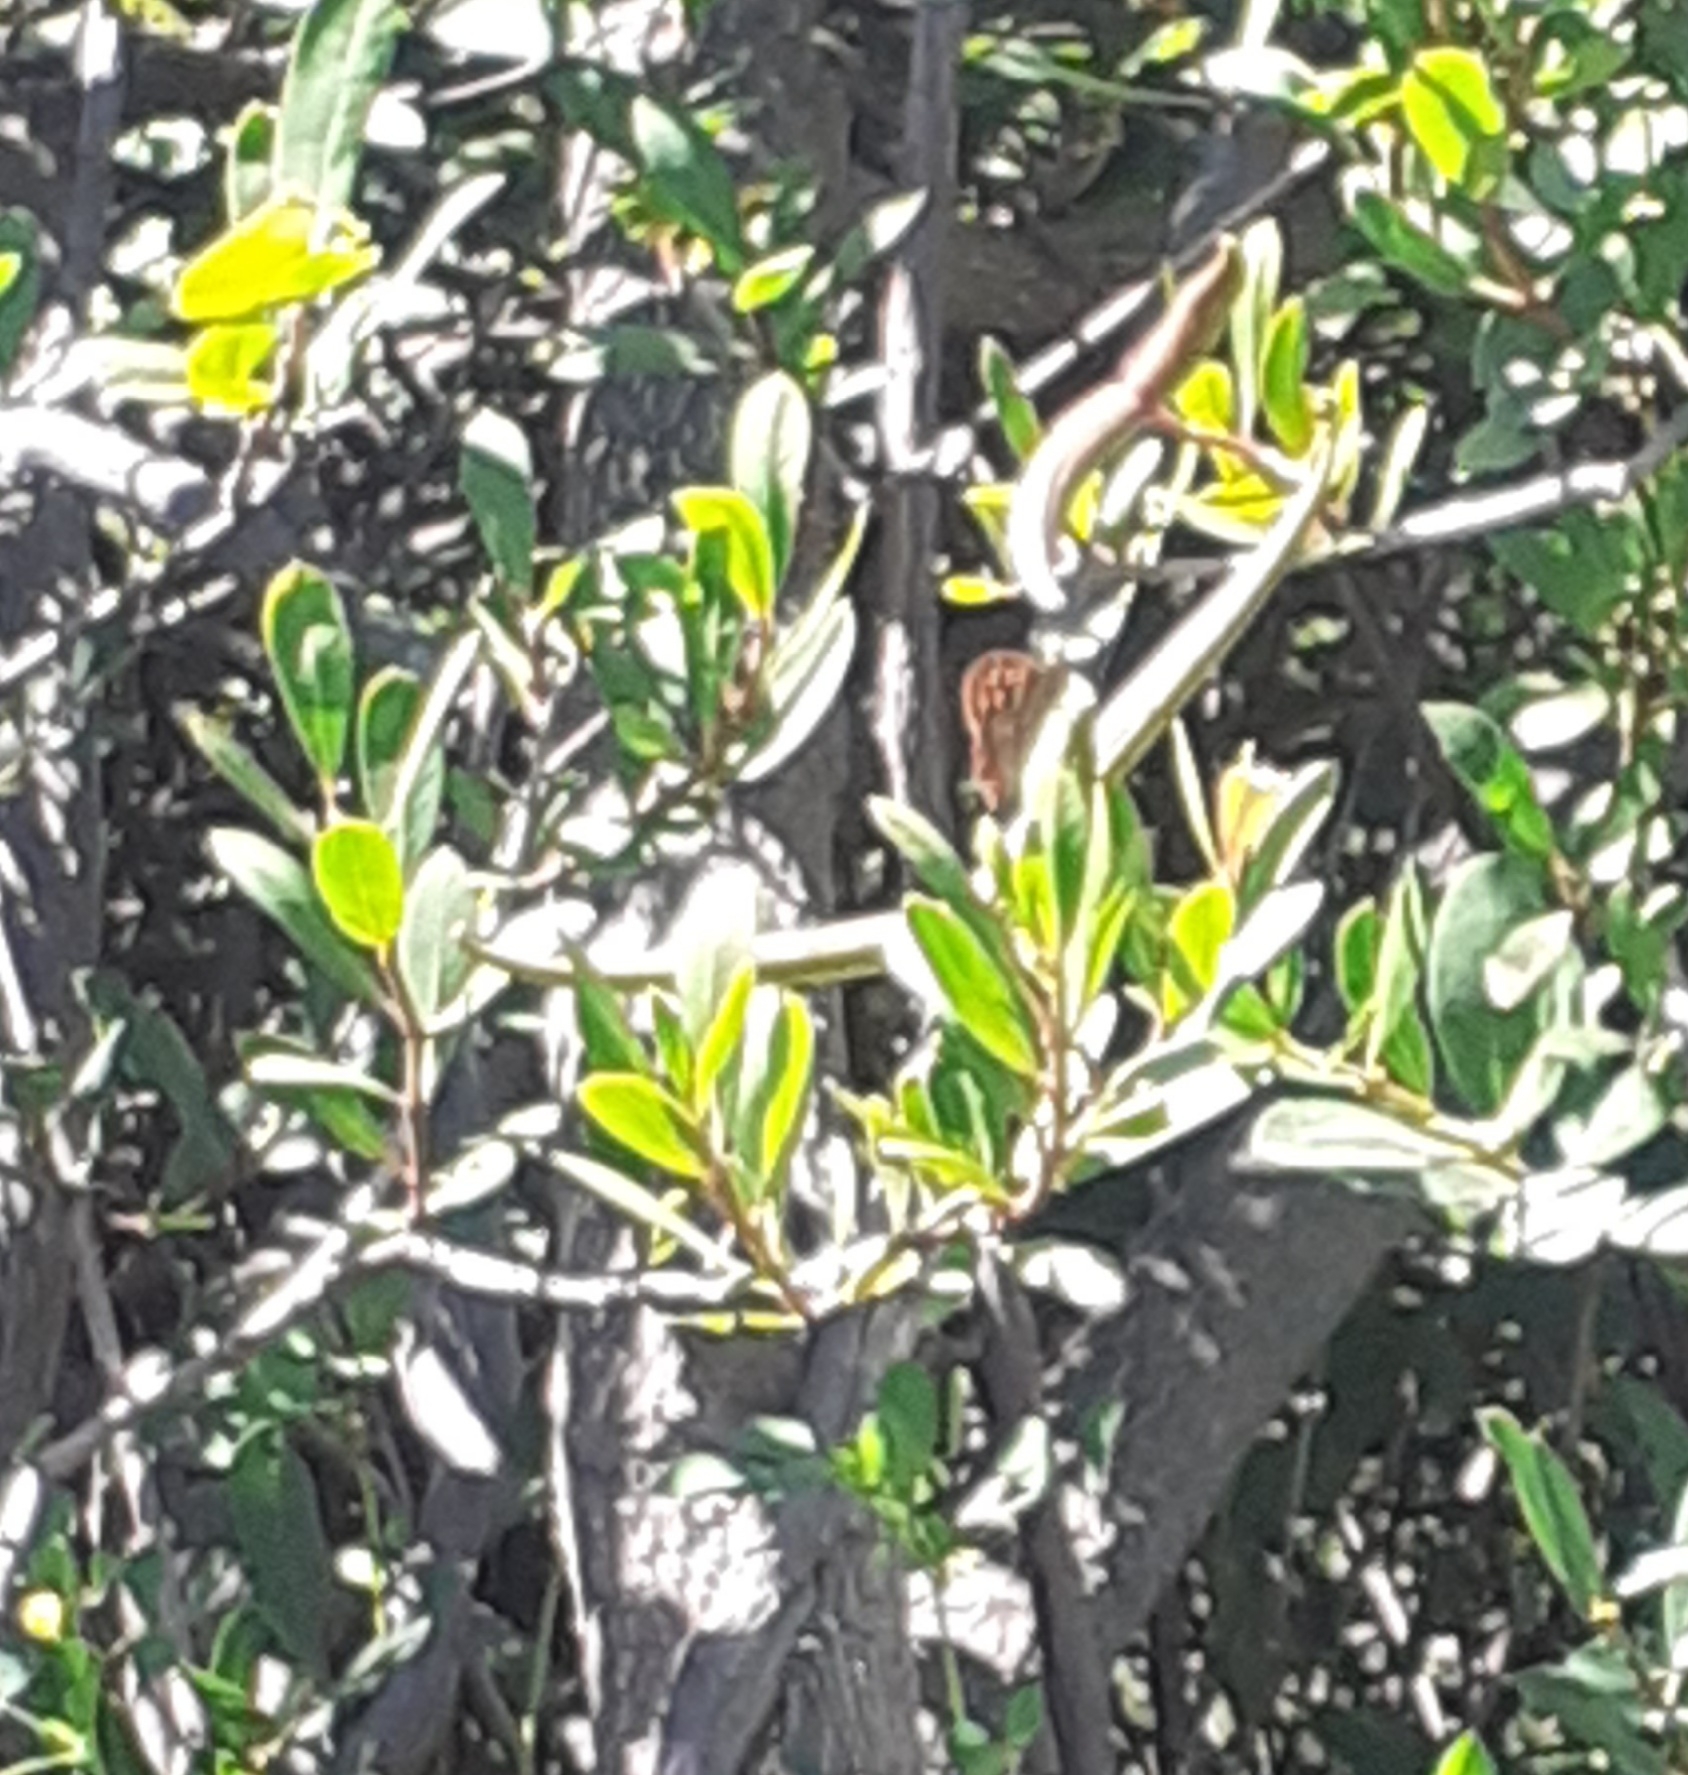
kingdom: Animalia
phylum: Arthropoda
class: Insecta
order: Lepidoptera
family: Nymphalidae
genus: Pararge
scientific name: Pararge aegeria
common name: Speckled wood
